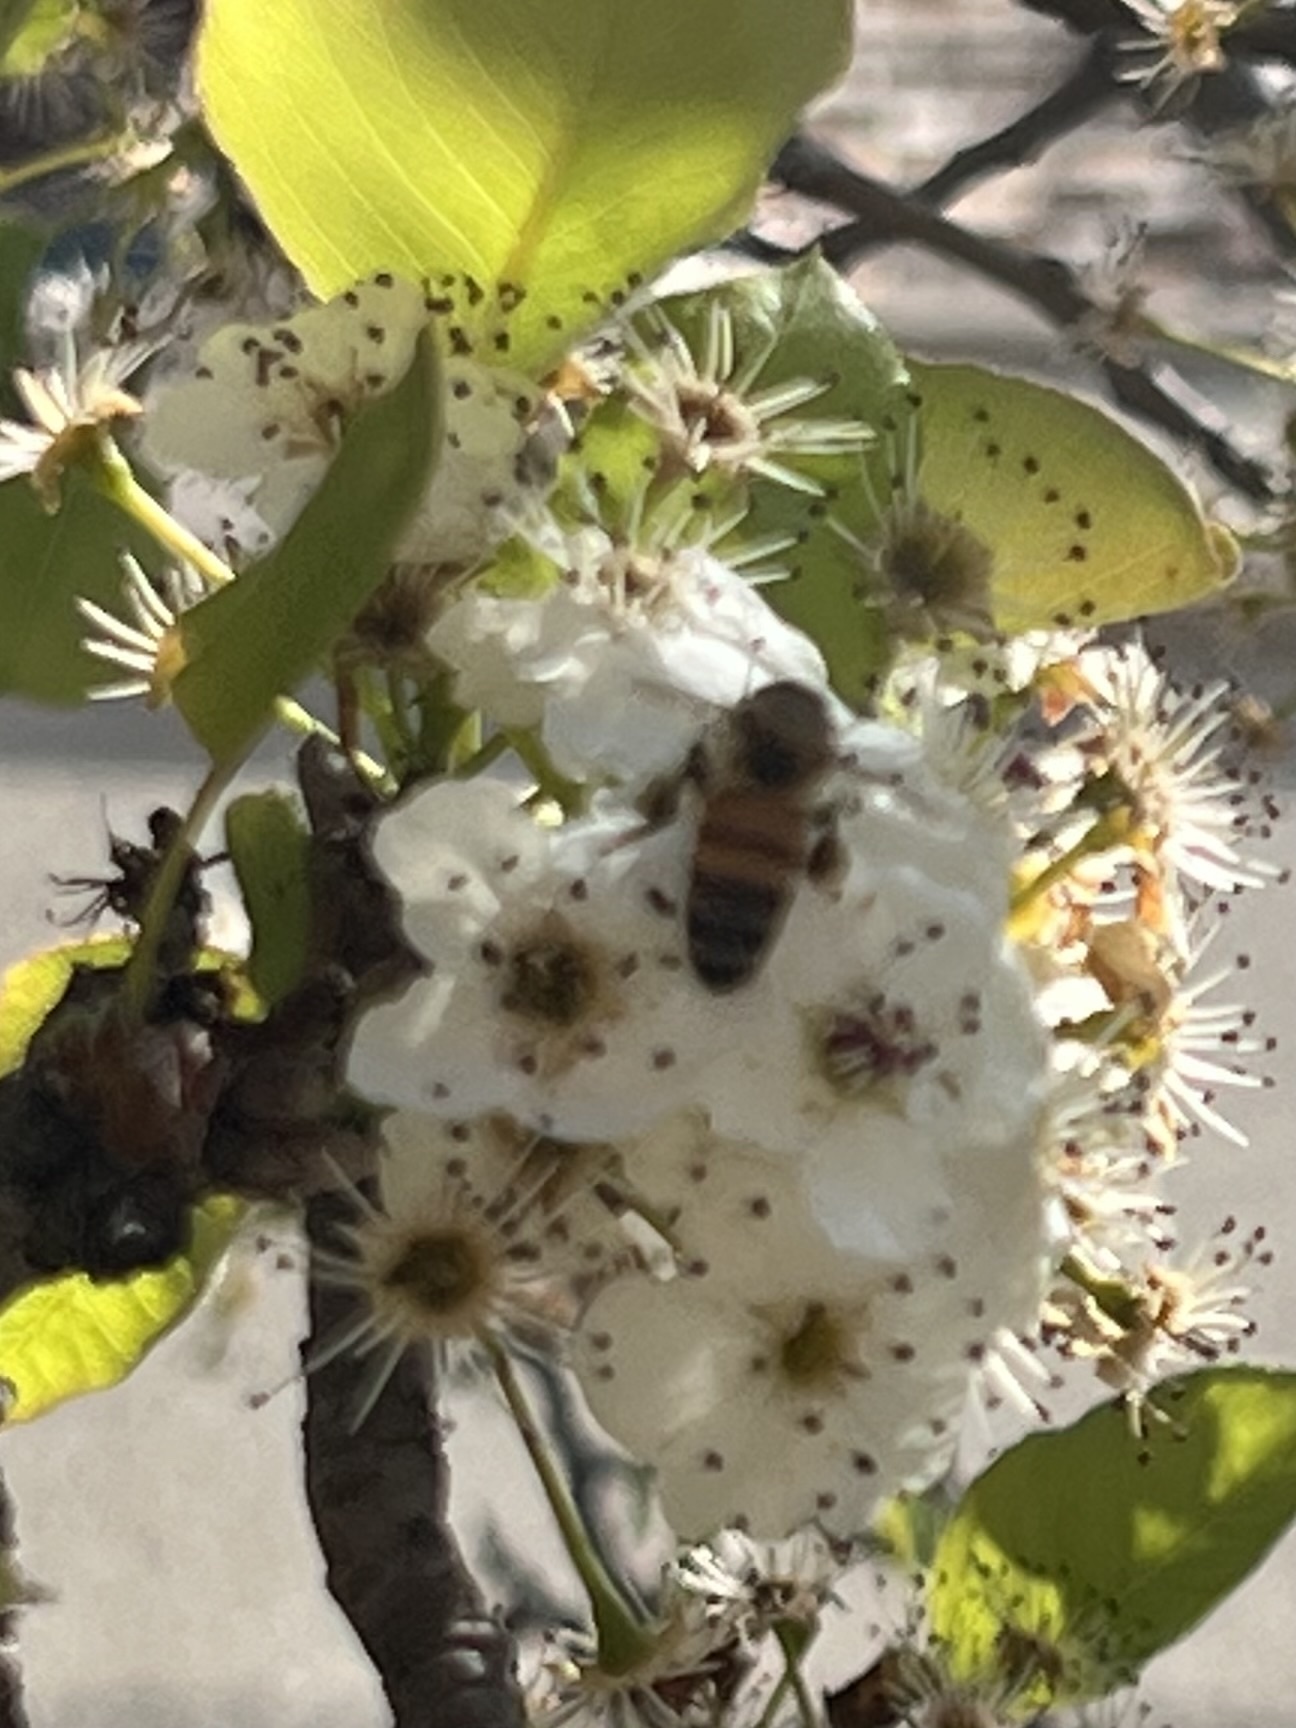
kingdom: Animalia
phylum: Arthropoda
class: Insecta
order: Hymenoptera
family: Apidae
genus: Apis
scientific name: Apis mellifera
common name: Honey bee
